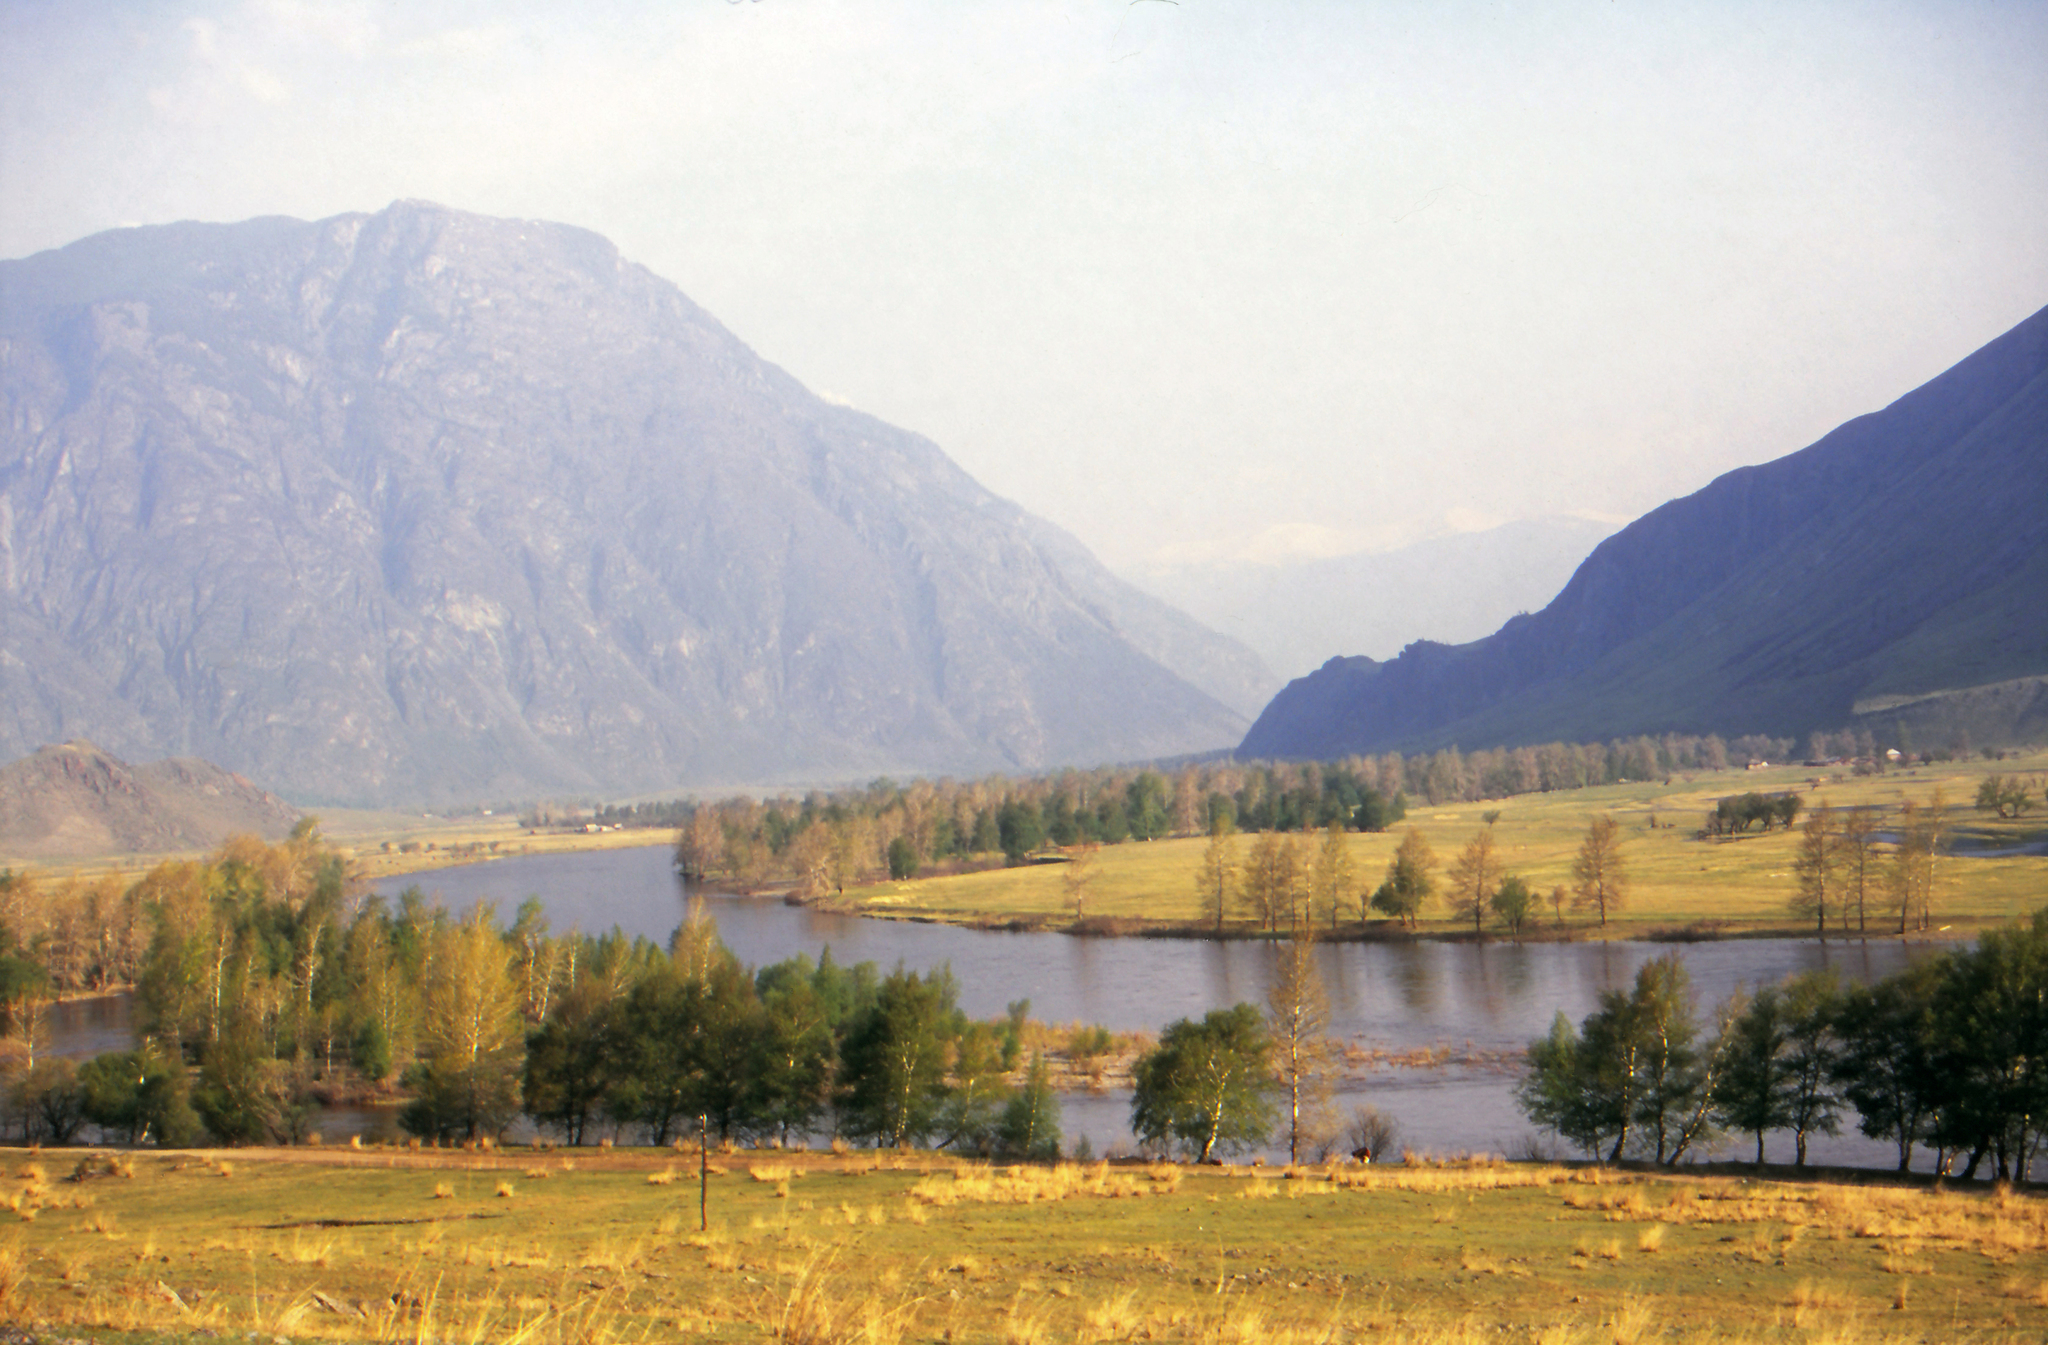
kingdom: Plantae
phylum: Tracheophyta
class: Magnoliopsida
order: Malpighiales
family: Salicaceae
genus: Populus
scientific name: Populus laurifolia
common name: Laurel-leaf poplar
